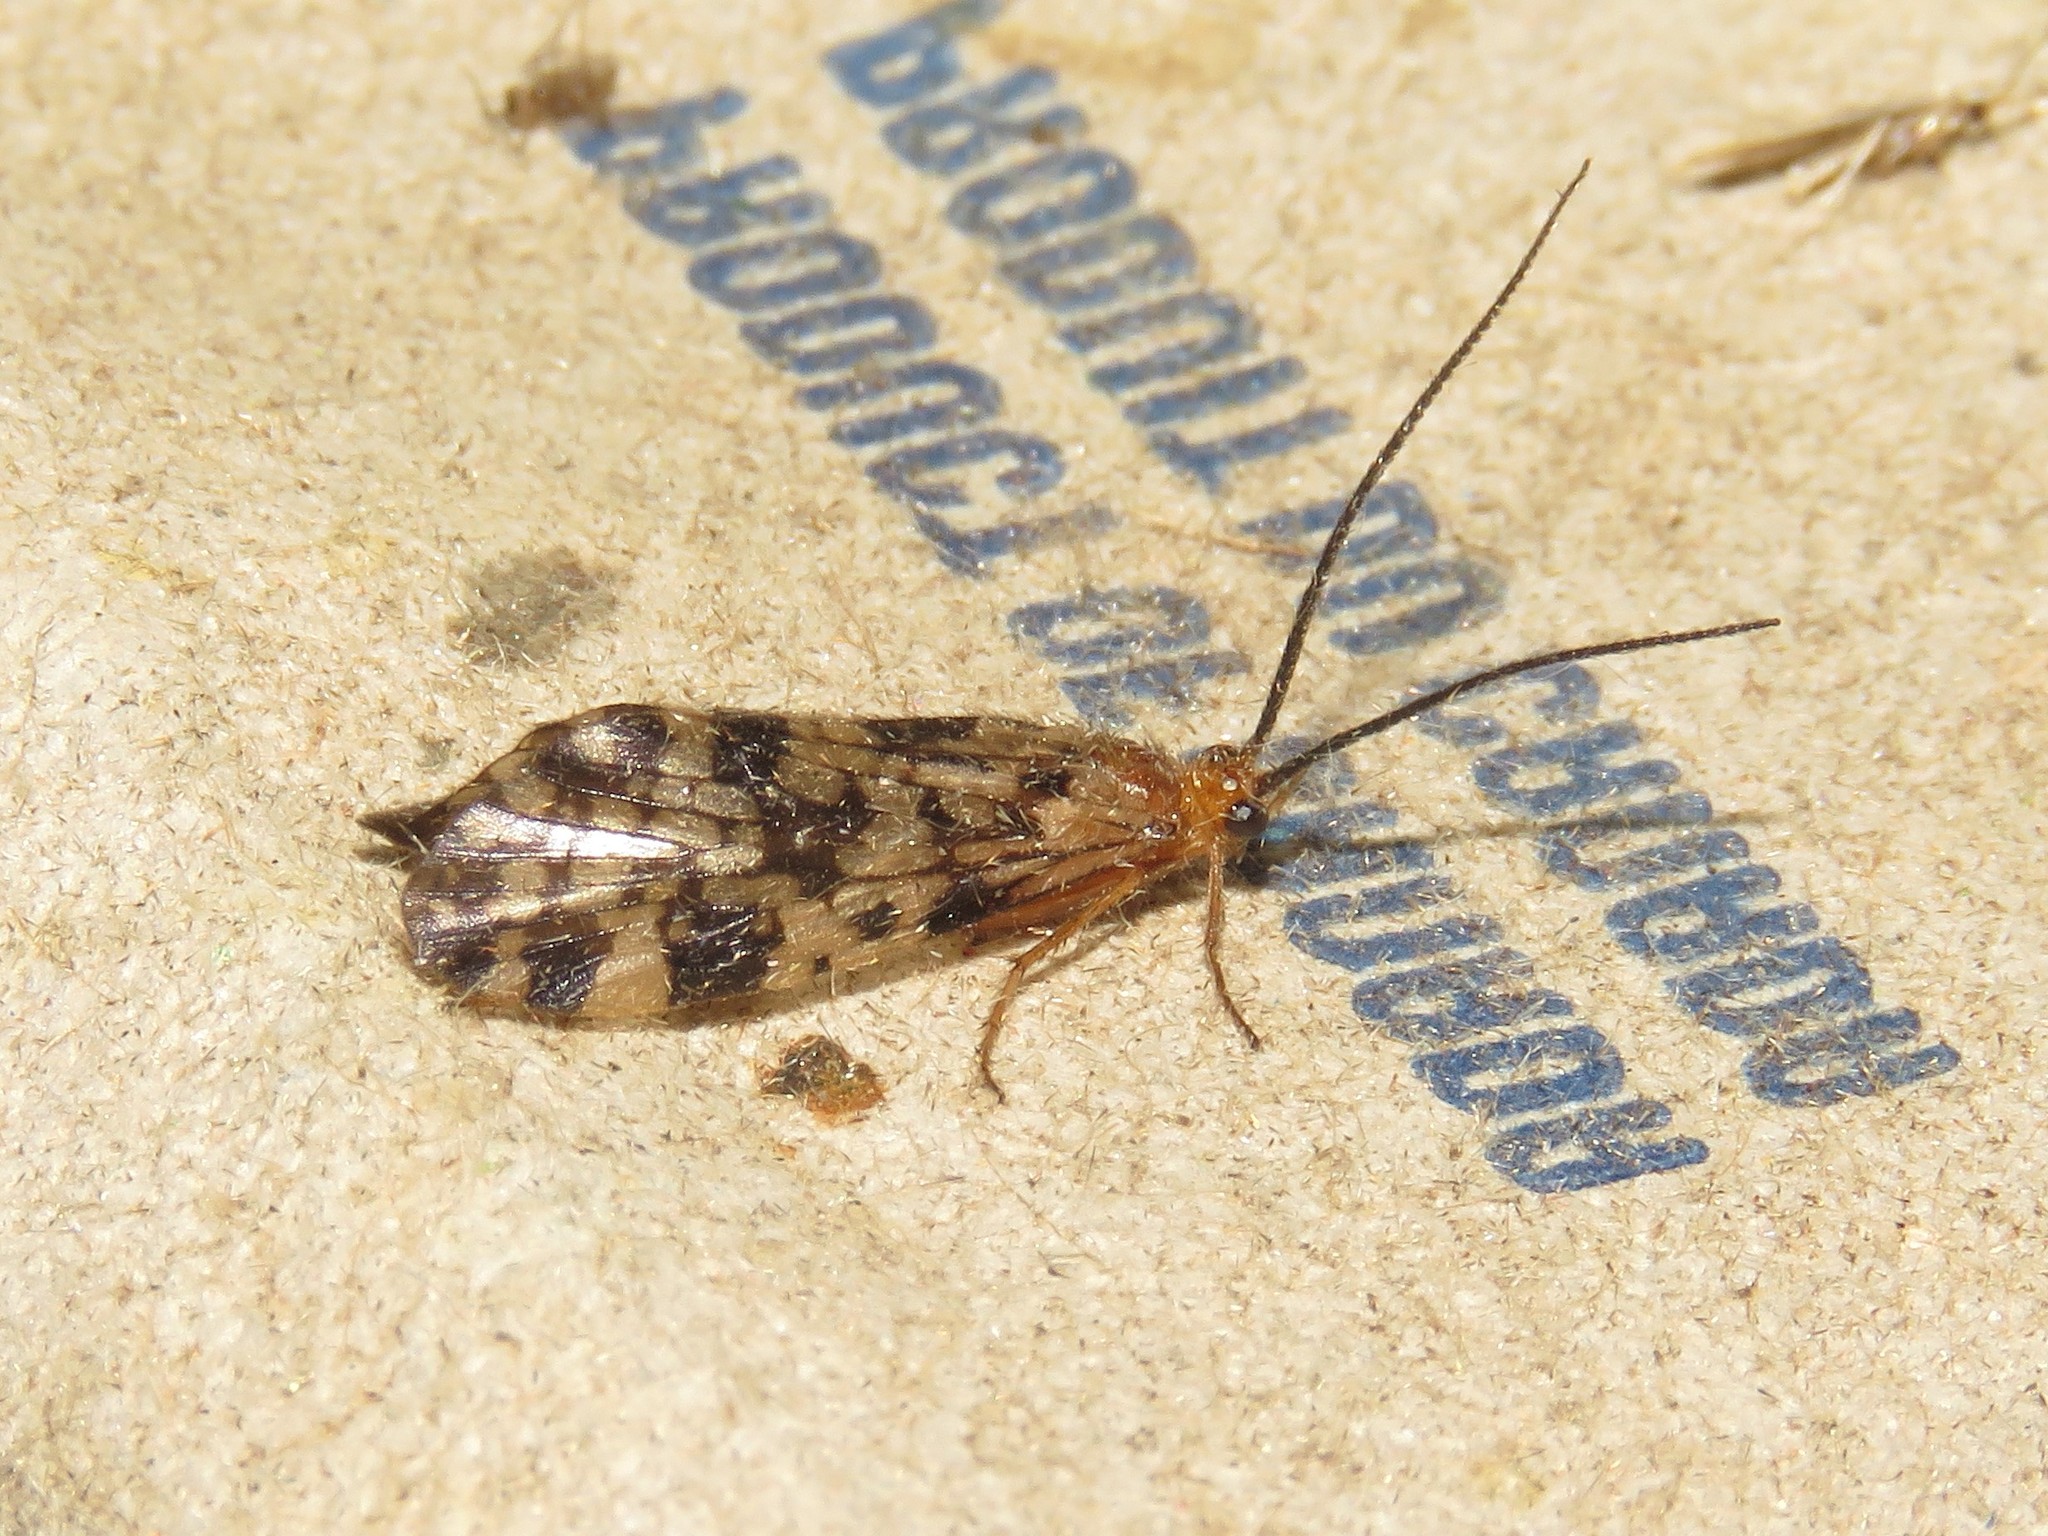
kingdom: Animalia
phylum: Arthropoda
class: Insecta
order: Trichoptera
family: Phryganeidae
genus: Banksiola
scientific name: Banksiola dossuaria
